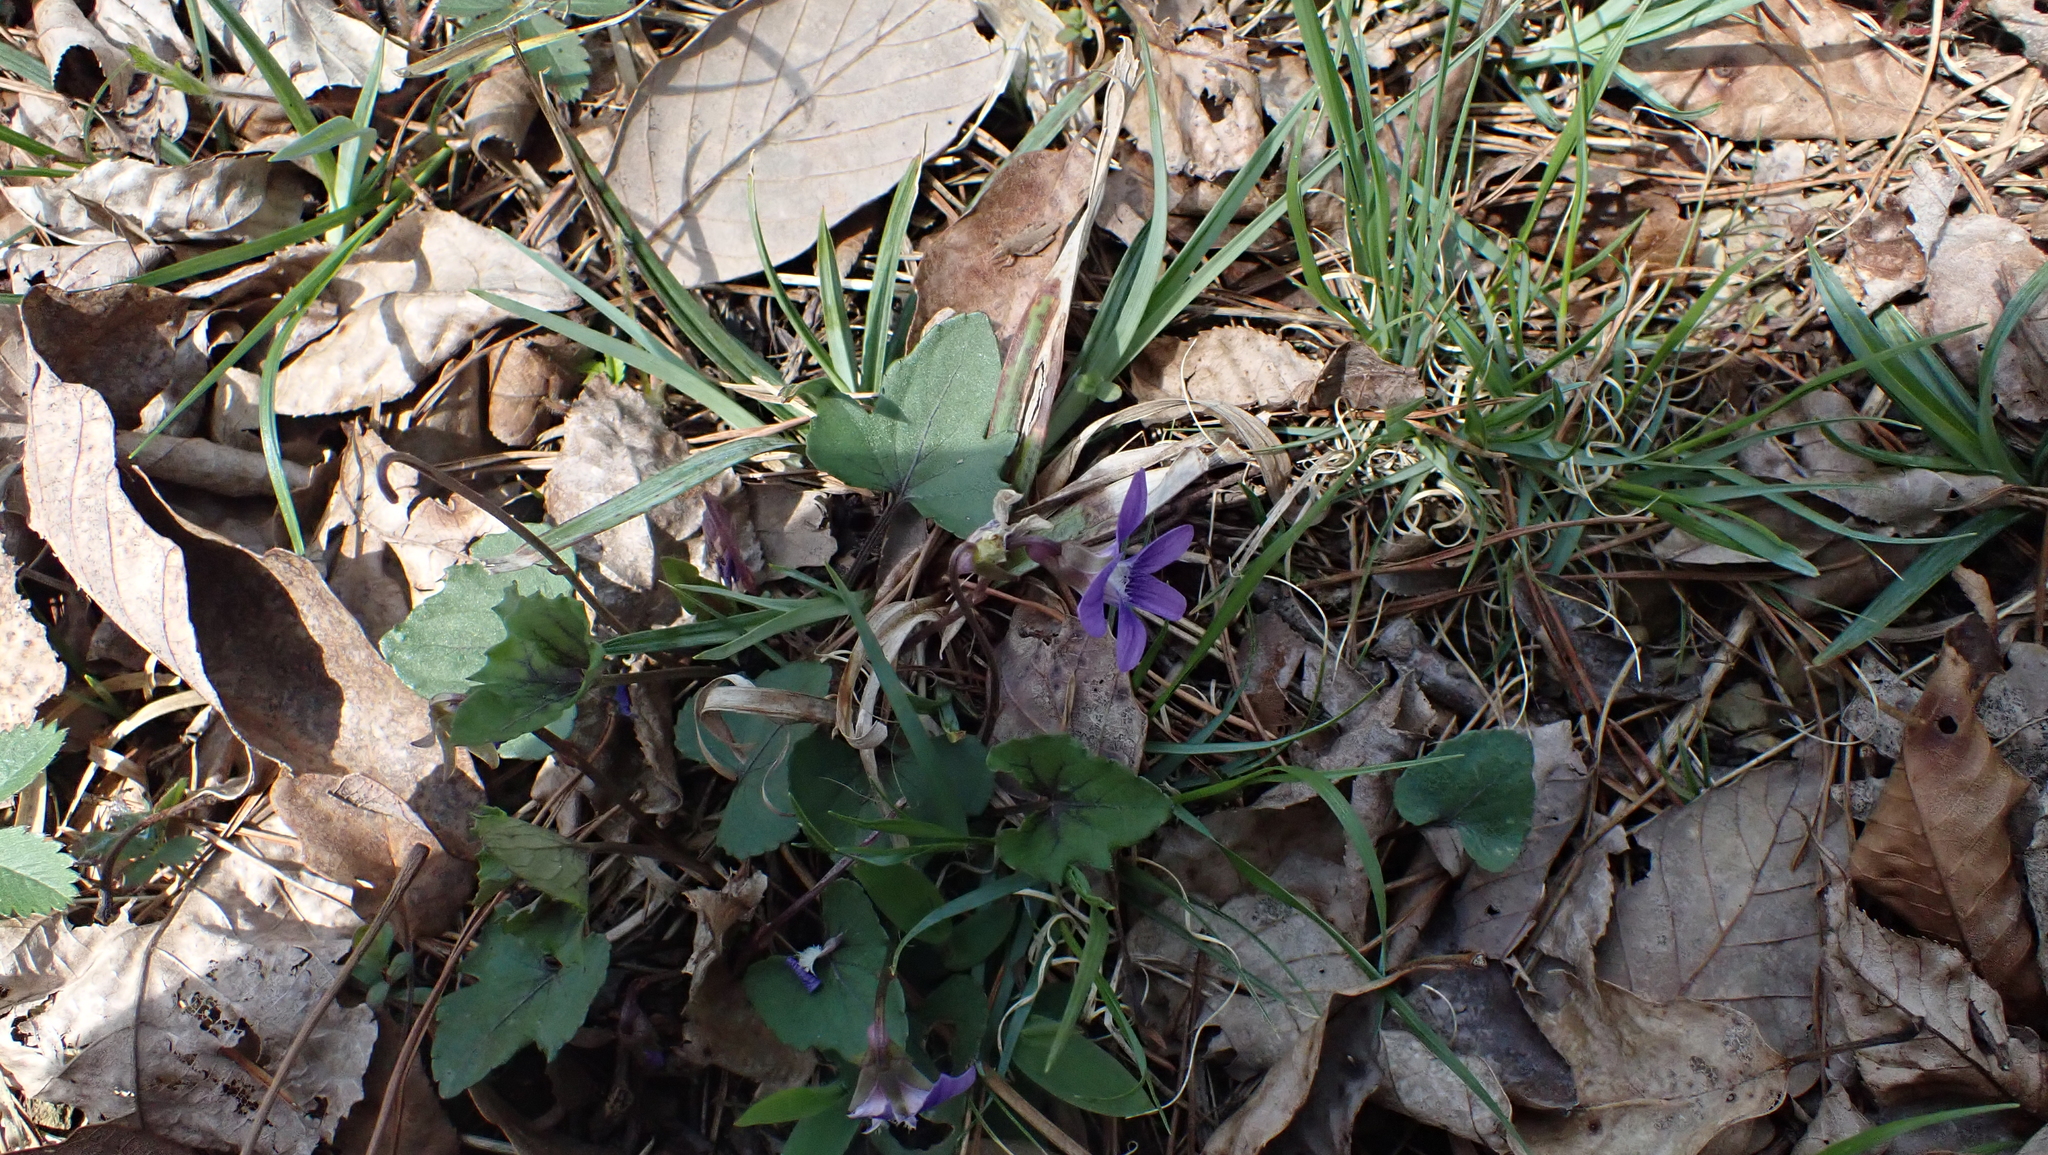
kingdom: Plantae
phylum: Tracheophyta
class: Magnoliopsida
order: Malpighiales
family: Violaceae
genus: Viola
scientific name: Viola palmata
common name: Early blue violet
